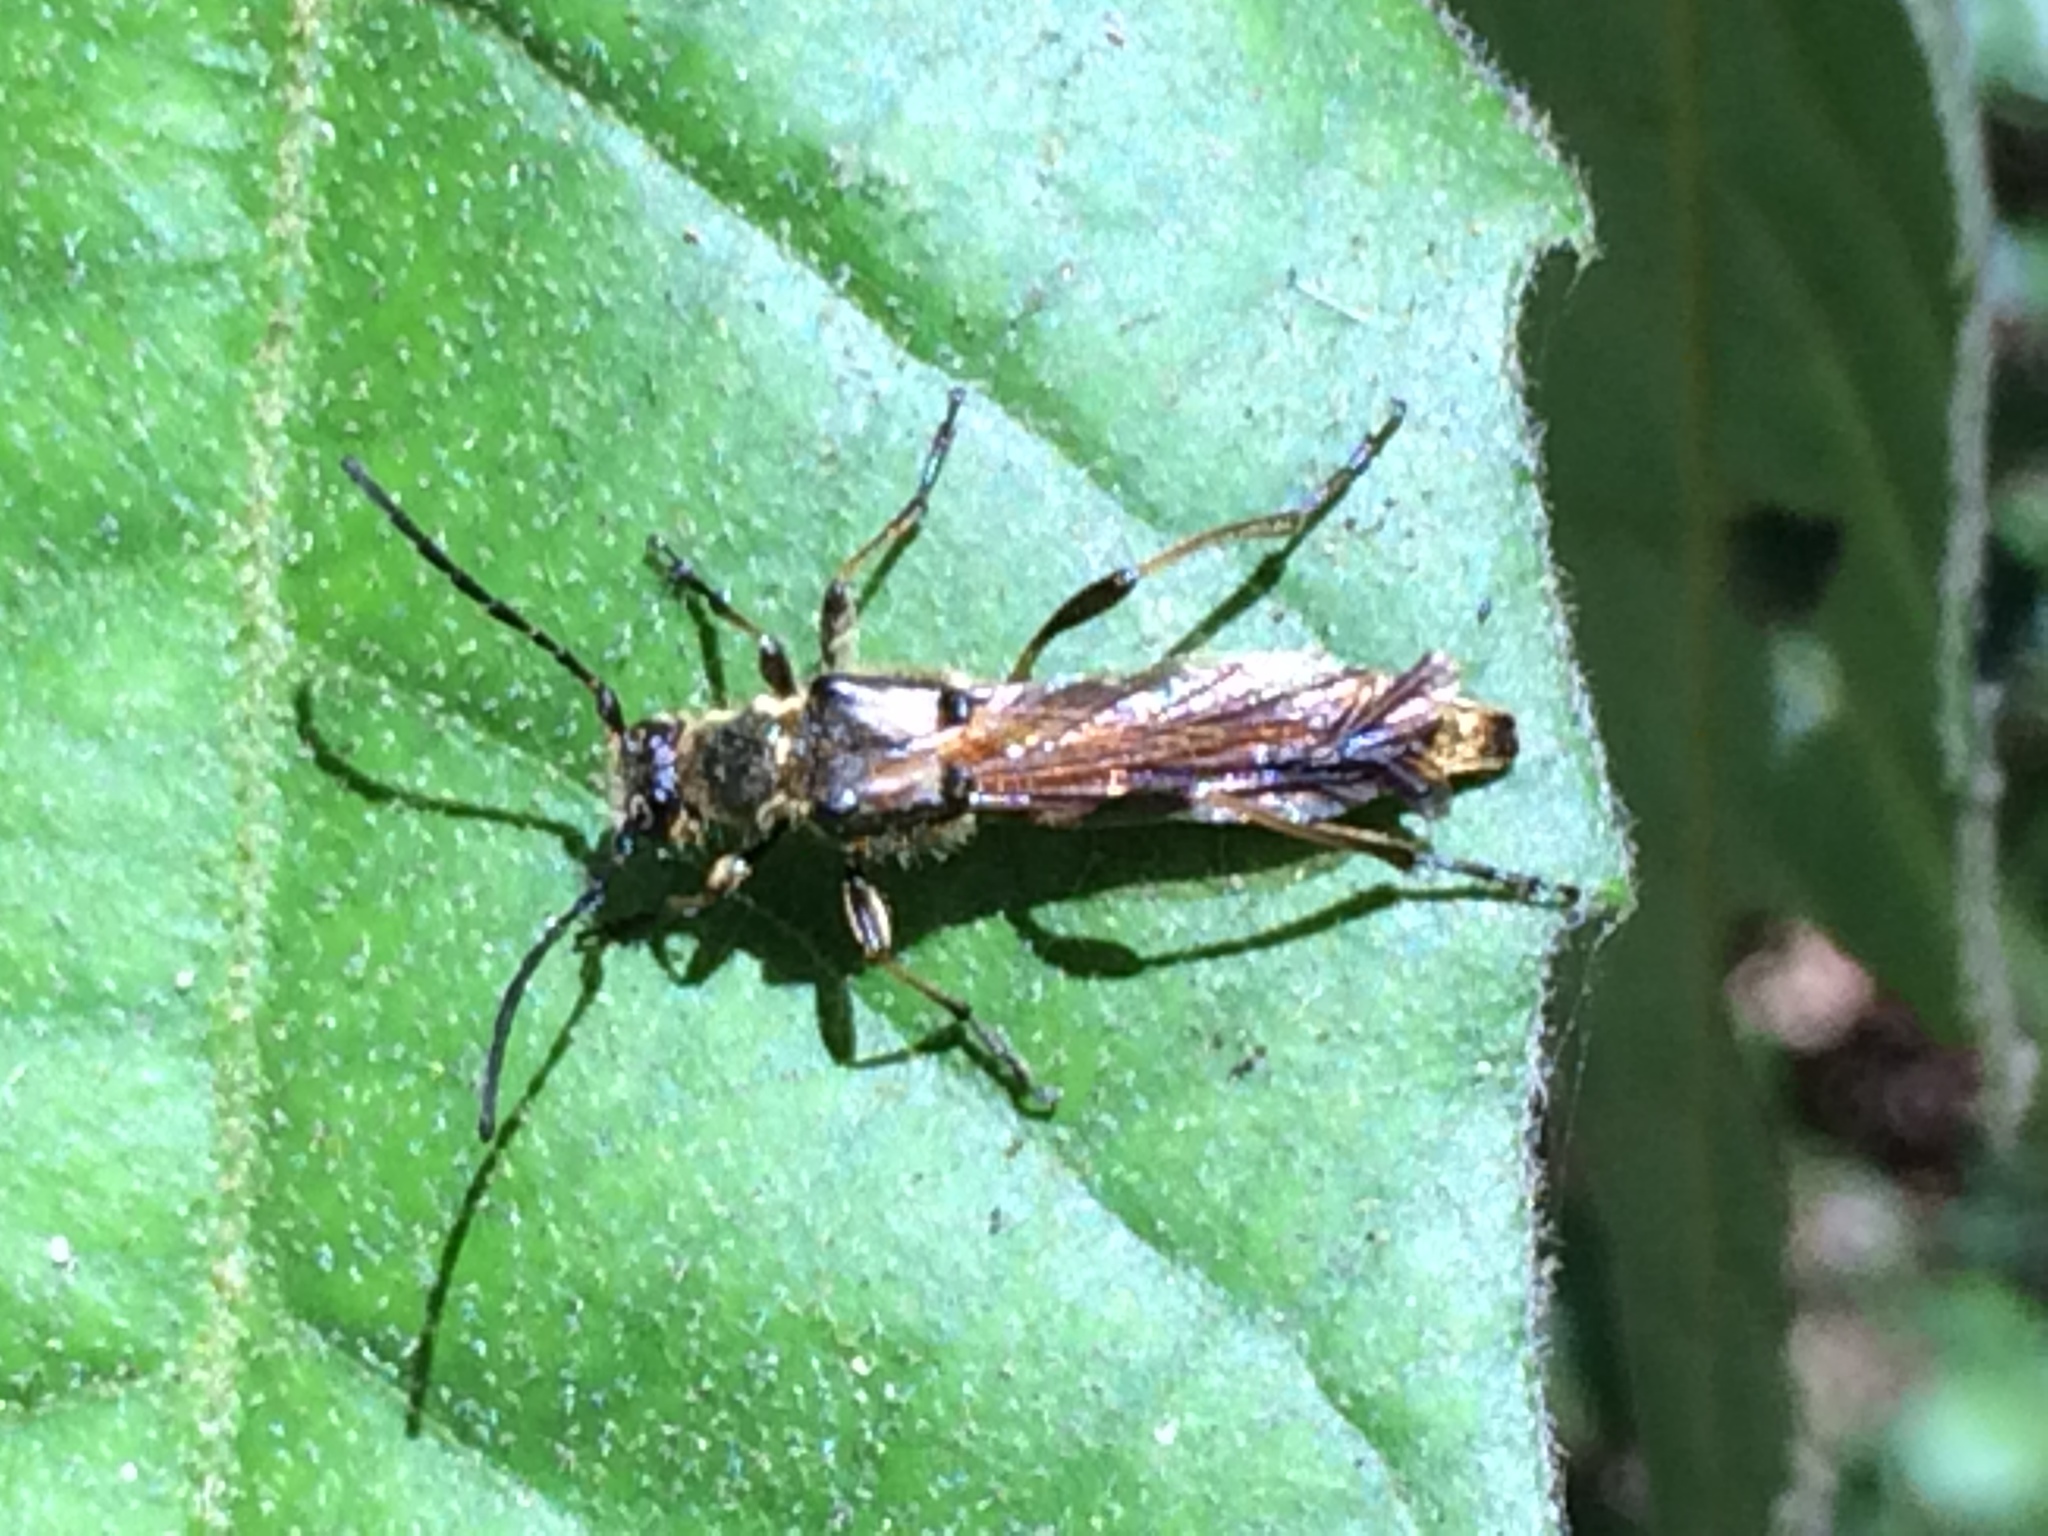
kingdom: Animalia
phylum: Arthropoda
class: Insecta
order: Coleoptera
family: Cerambycidae
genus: Necydalis
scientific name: Necydalis cavipennis
